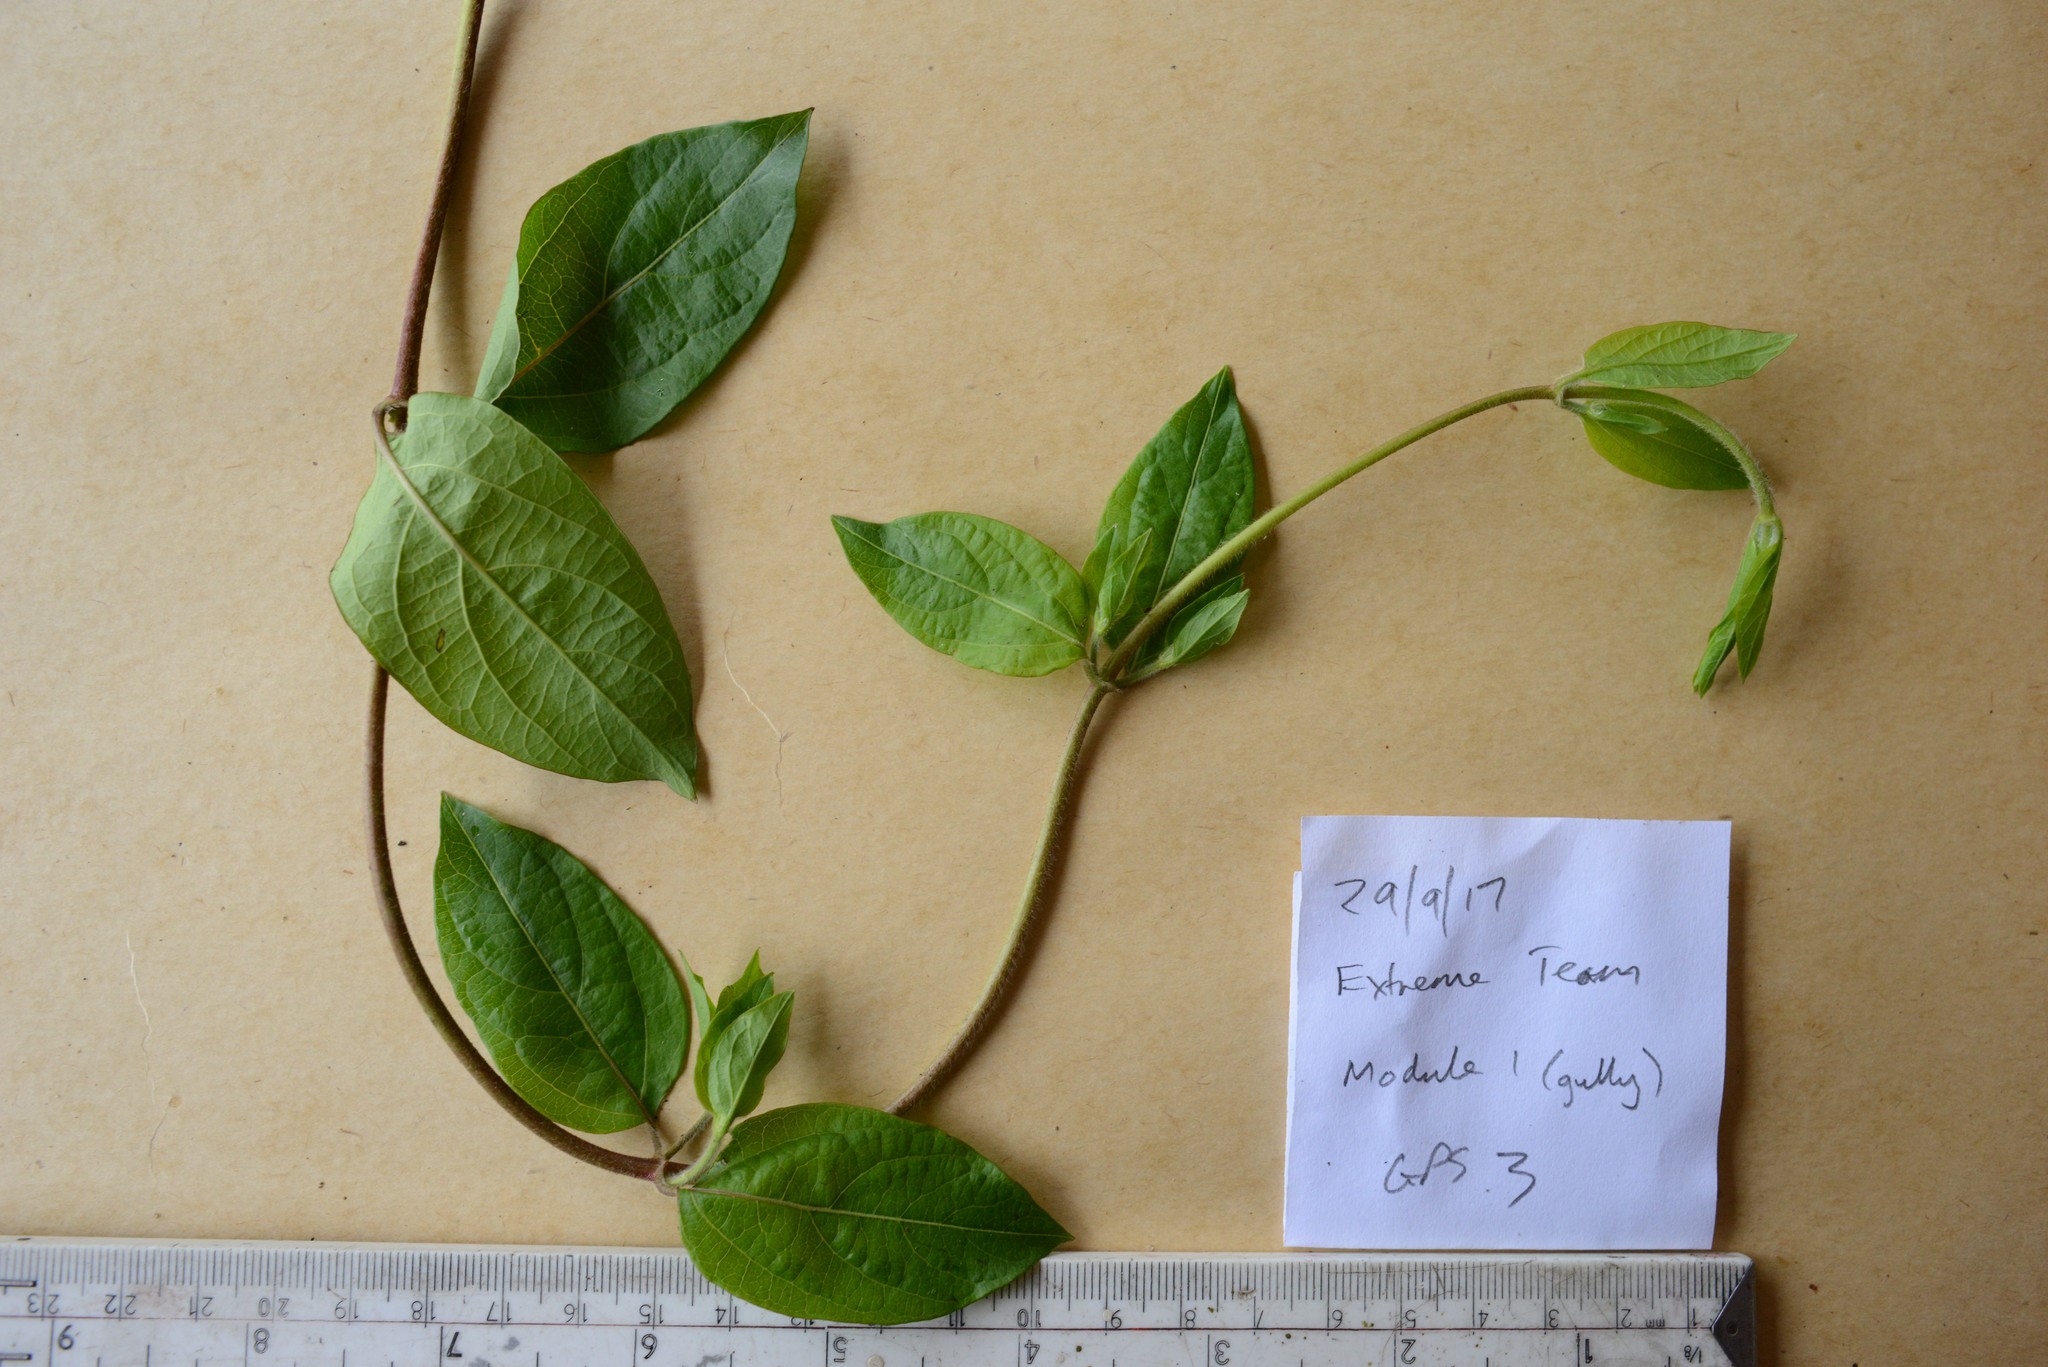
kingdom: Plantae
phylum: Tracheophyta
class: Magnoliopsida
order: Dipsacales
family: Caprifoliaceae
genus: Lonicera
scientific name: Lonicera japonica
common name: Japanese honeysuckle
